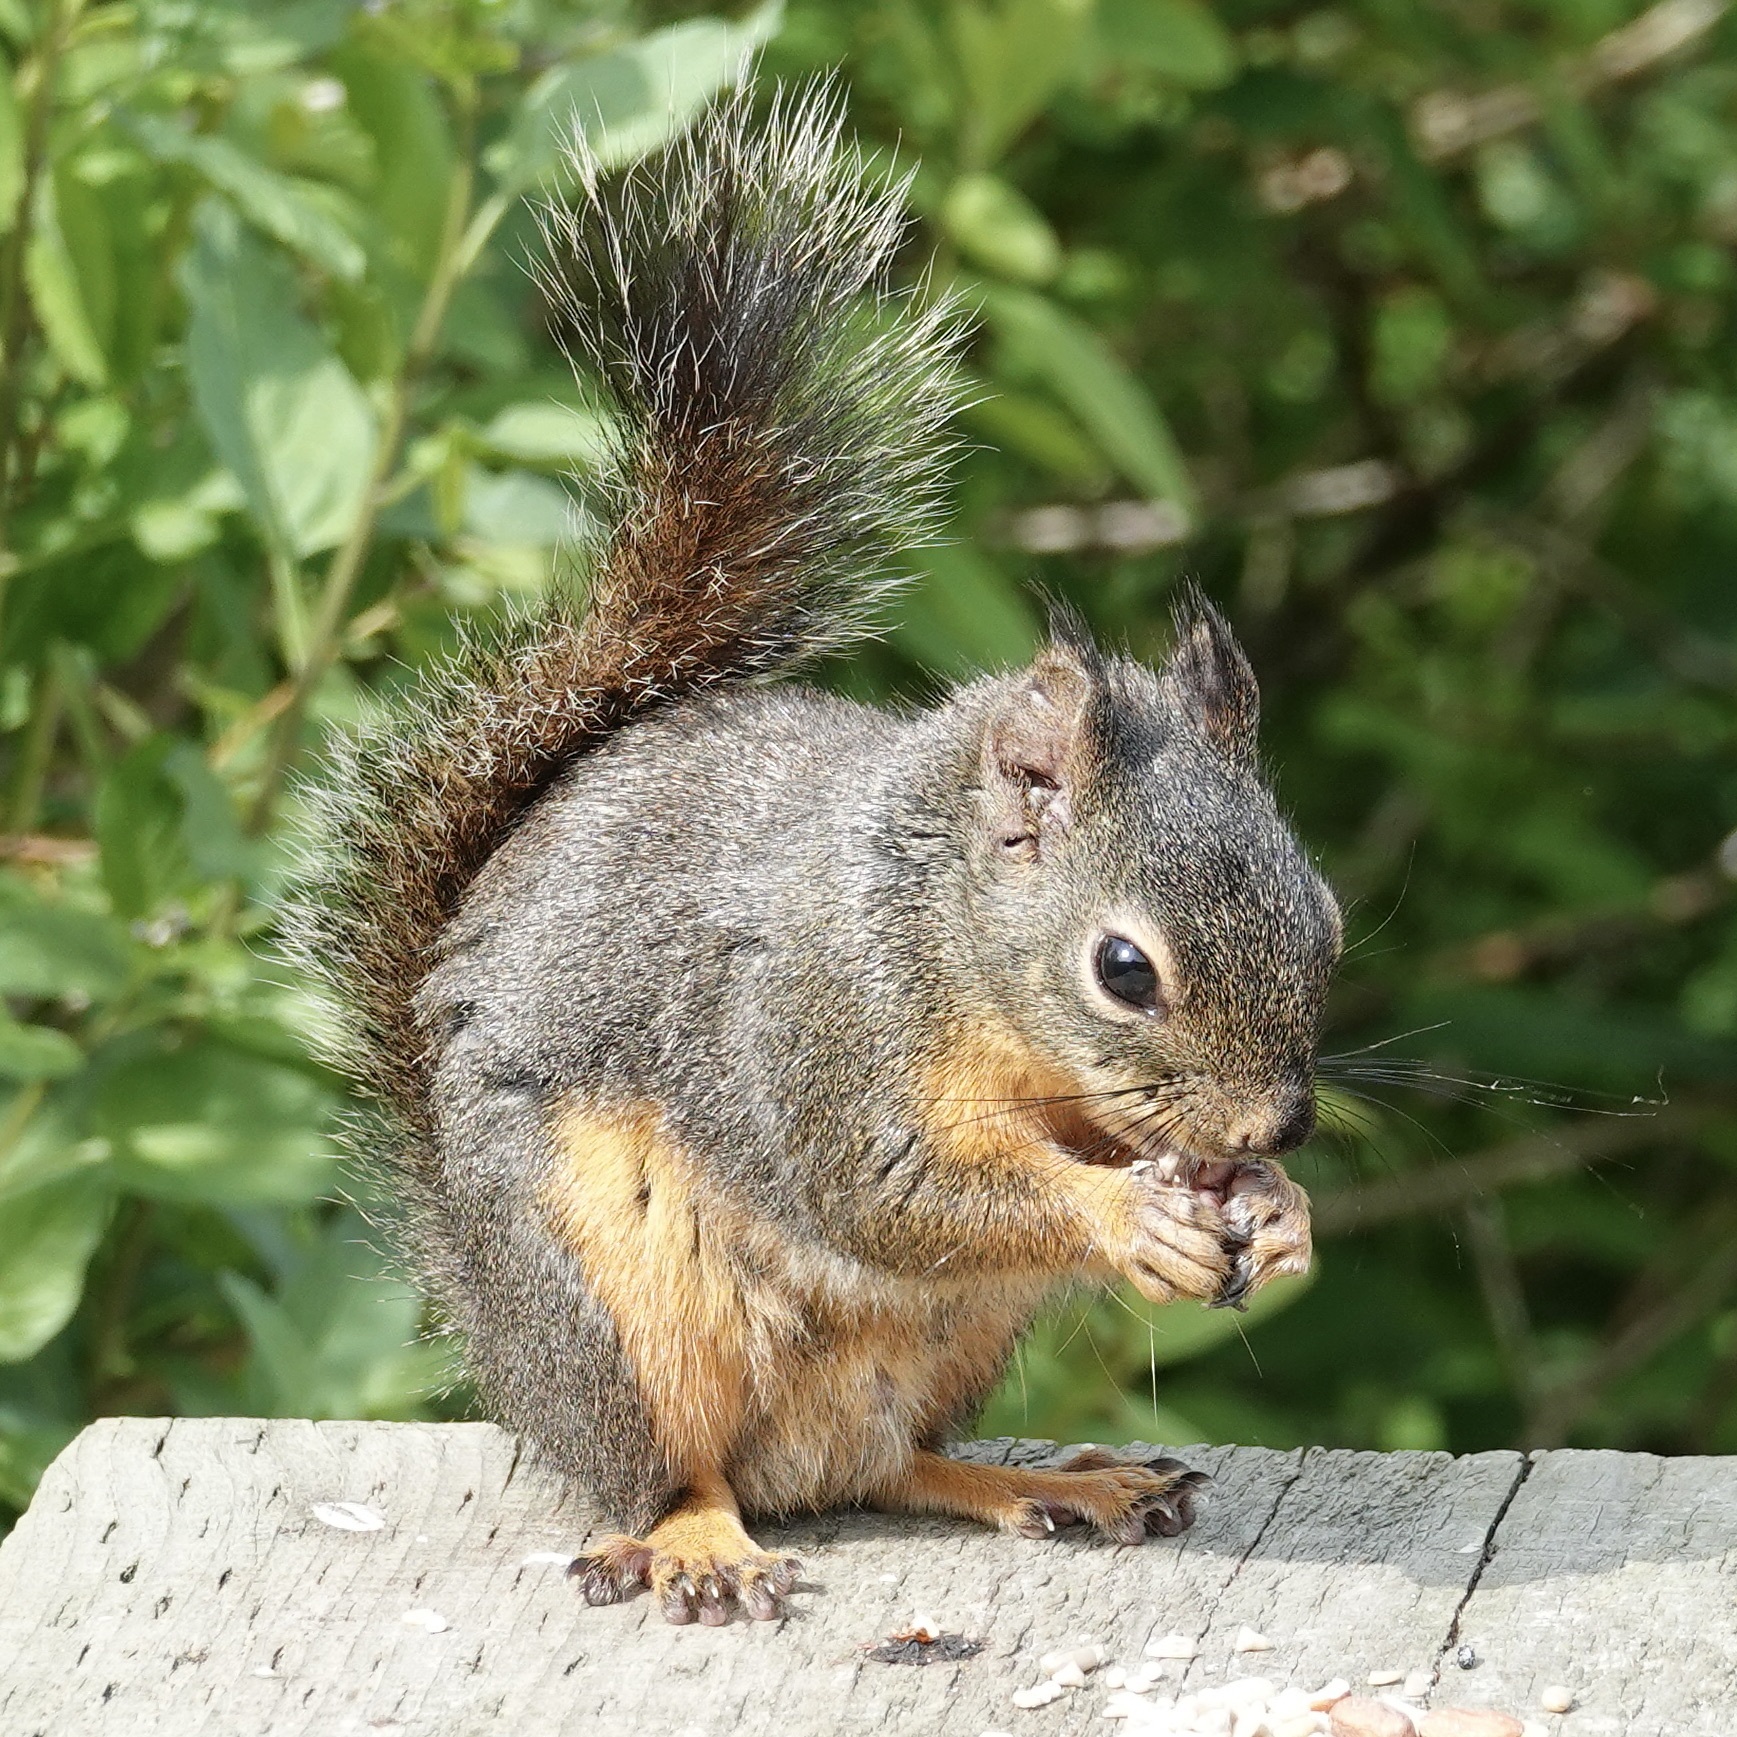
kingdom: Animalia
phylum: Chordata
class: Mammalia
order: Rodentia
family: Sciuridae
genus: Tamiasciurus
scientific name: Tamiasciurus douglasii
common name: Douglas's squirrel
